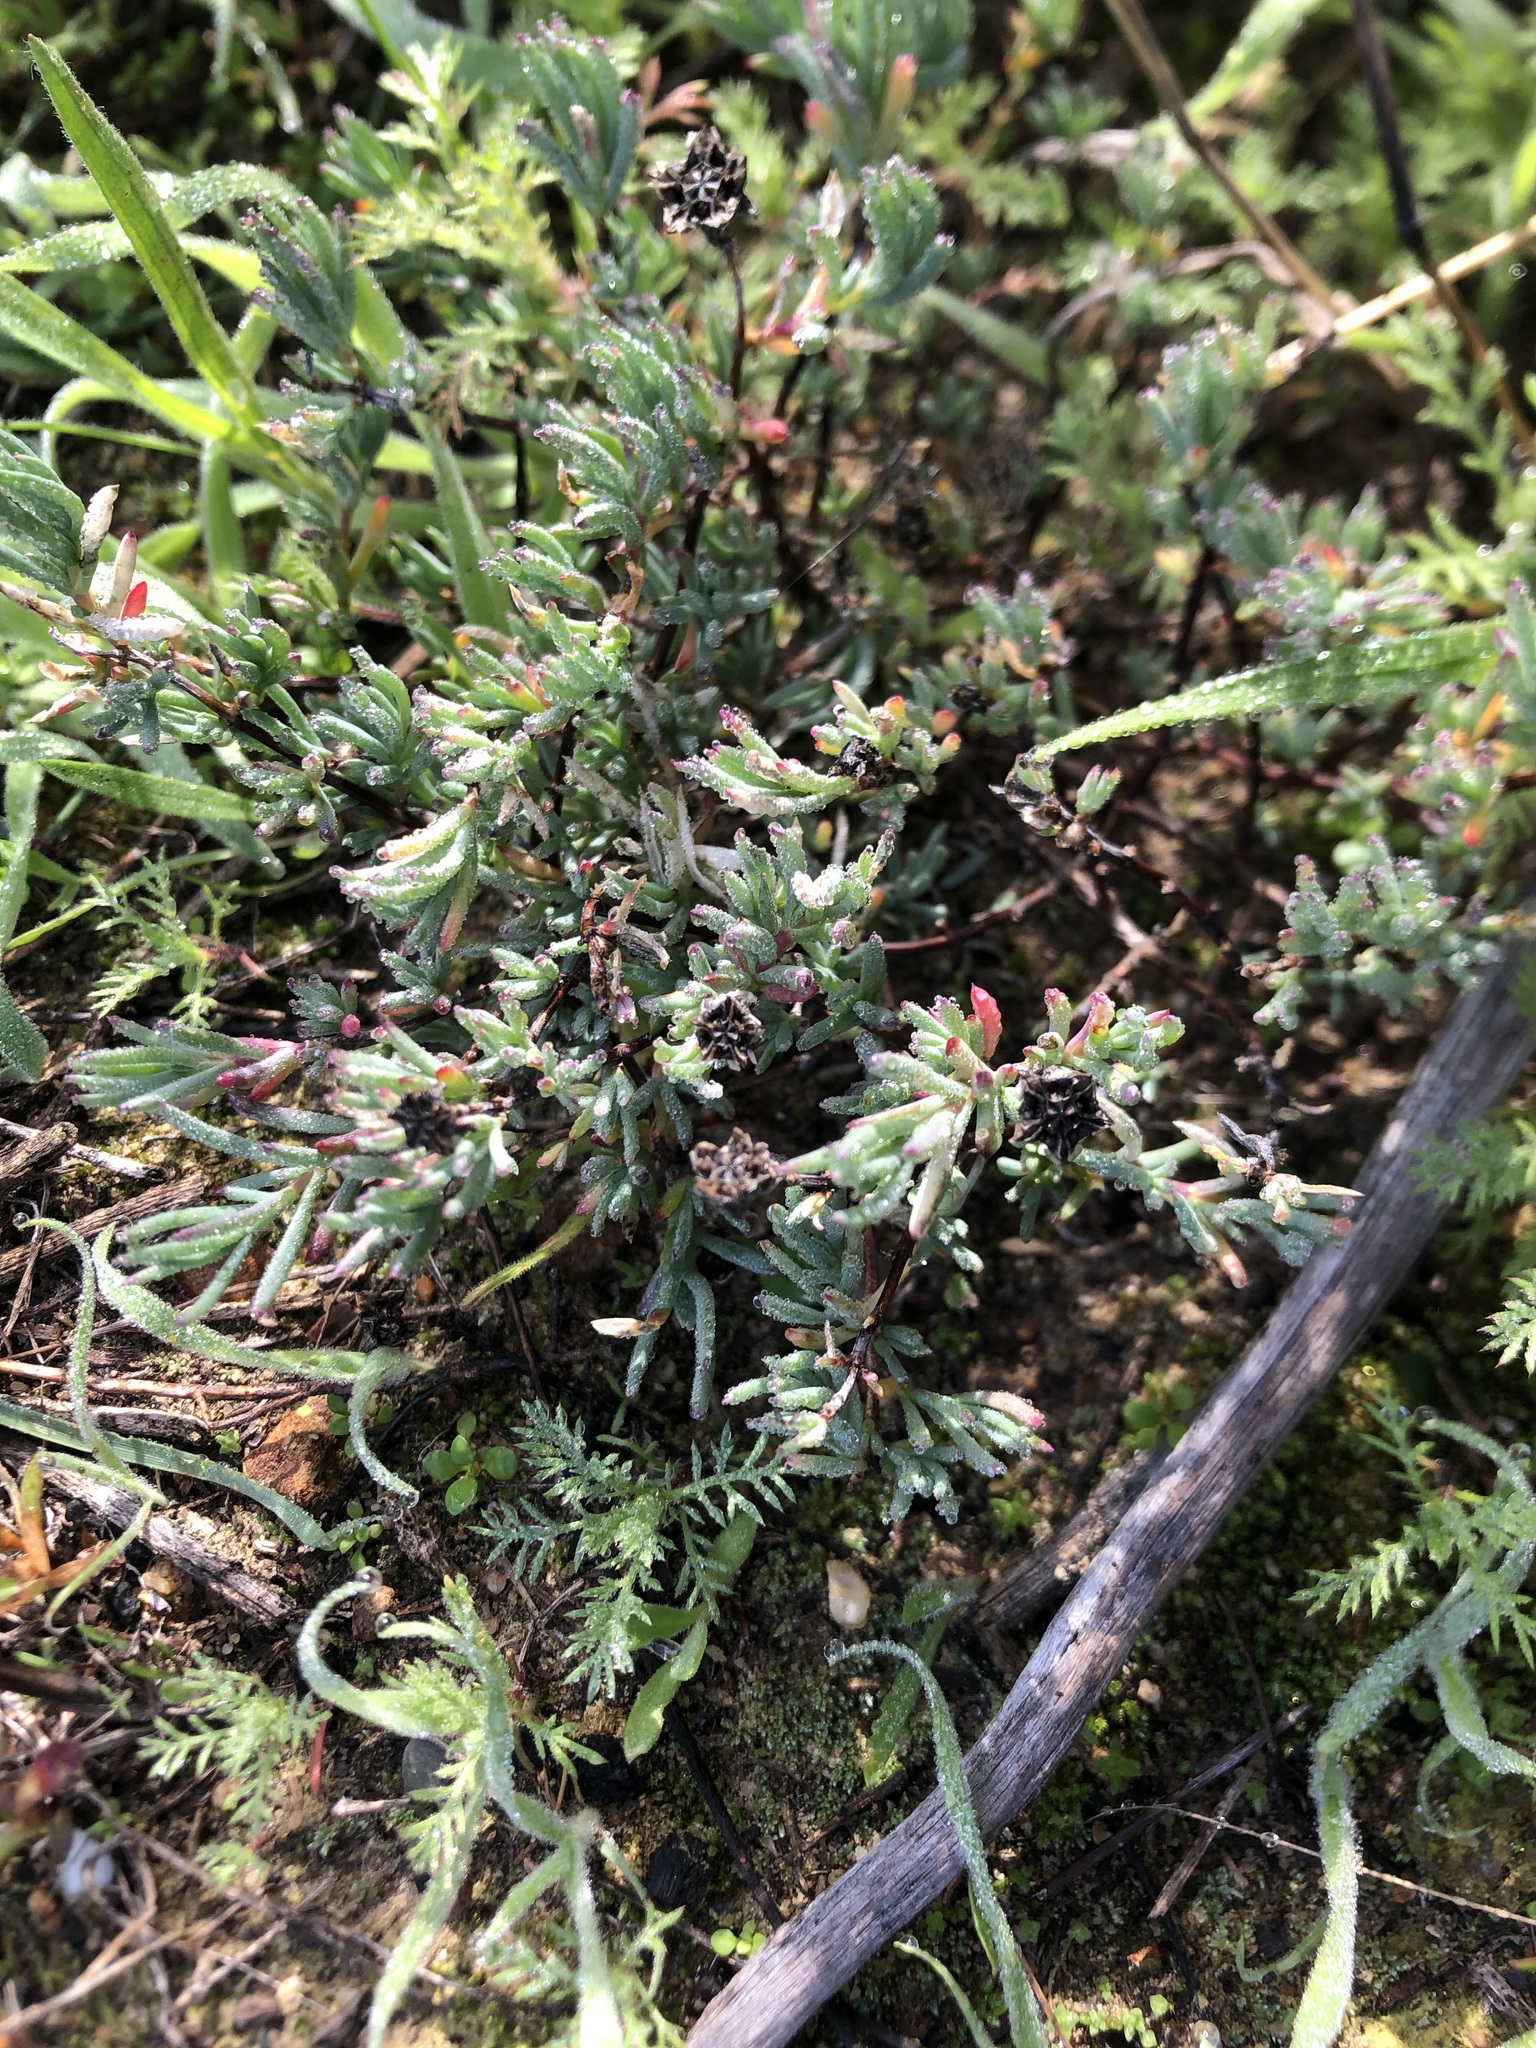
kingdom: Plantae
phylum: Tracheophyta
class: Magnoliopsida
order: Caryophyllales
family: Aizoaceae
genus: Lampranthus
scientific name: Lampranthus emarginatus
